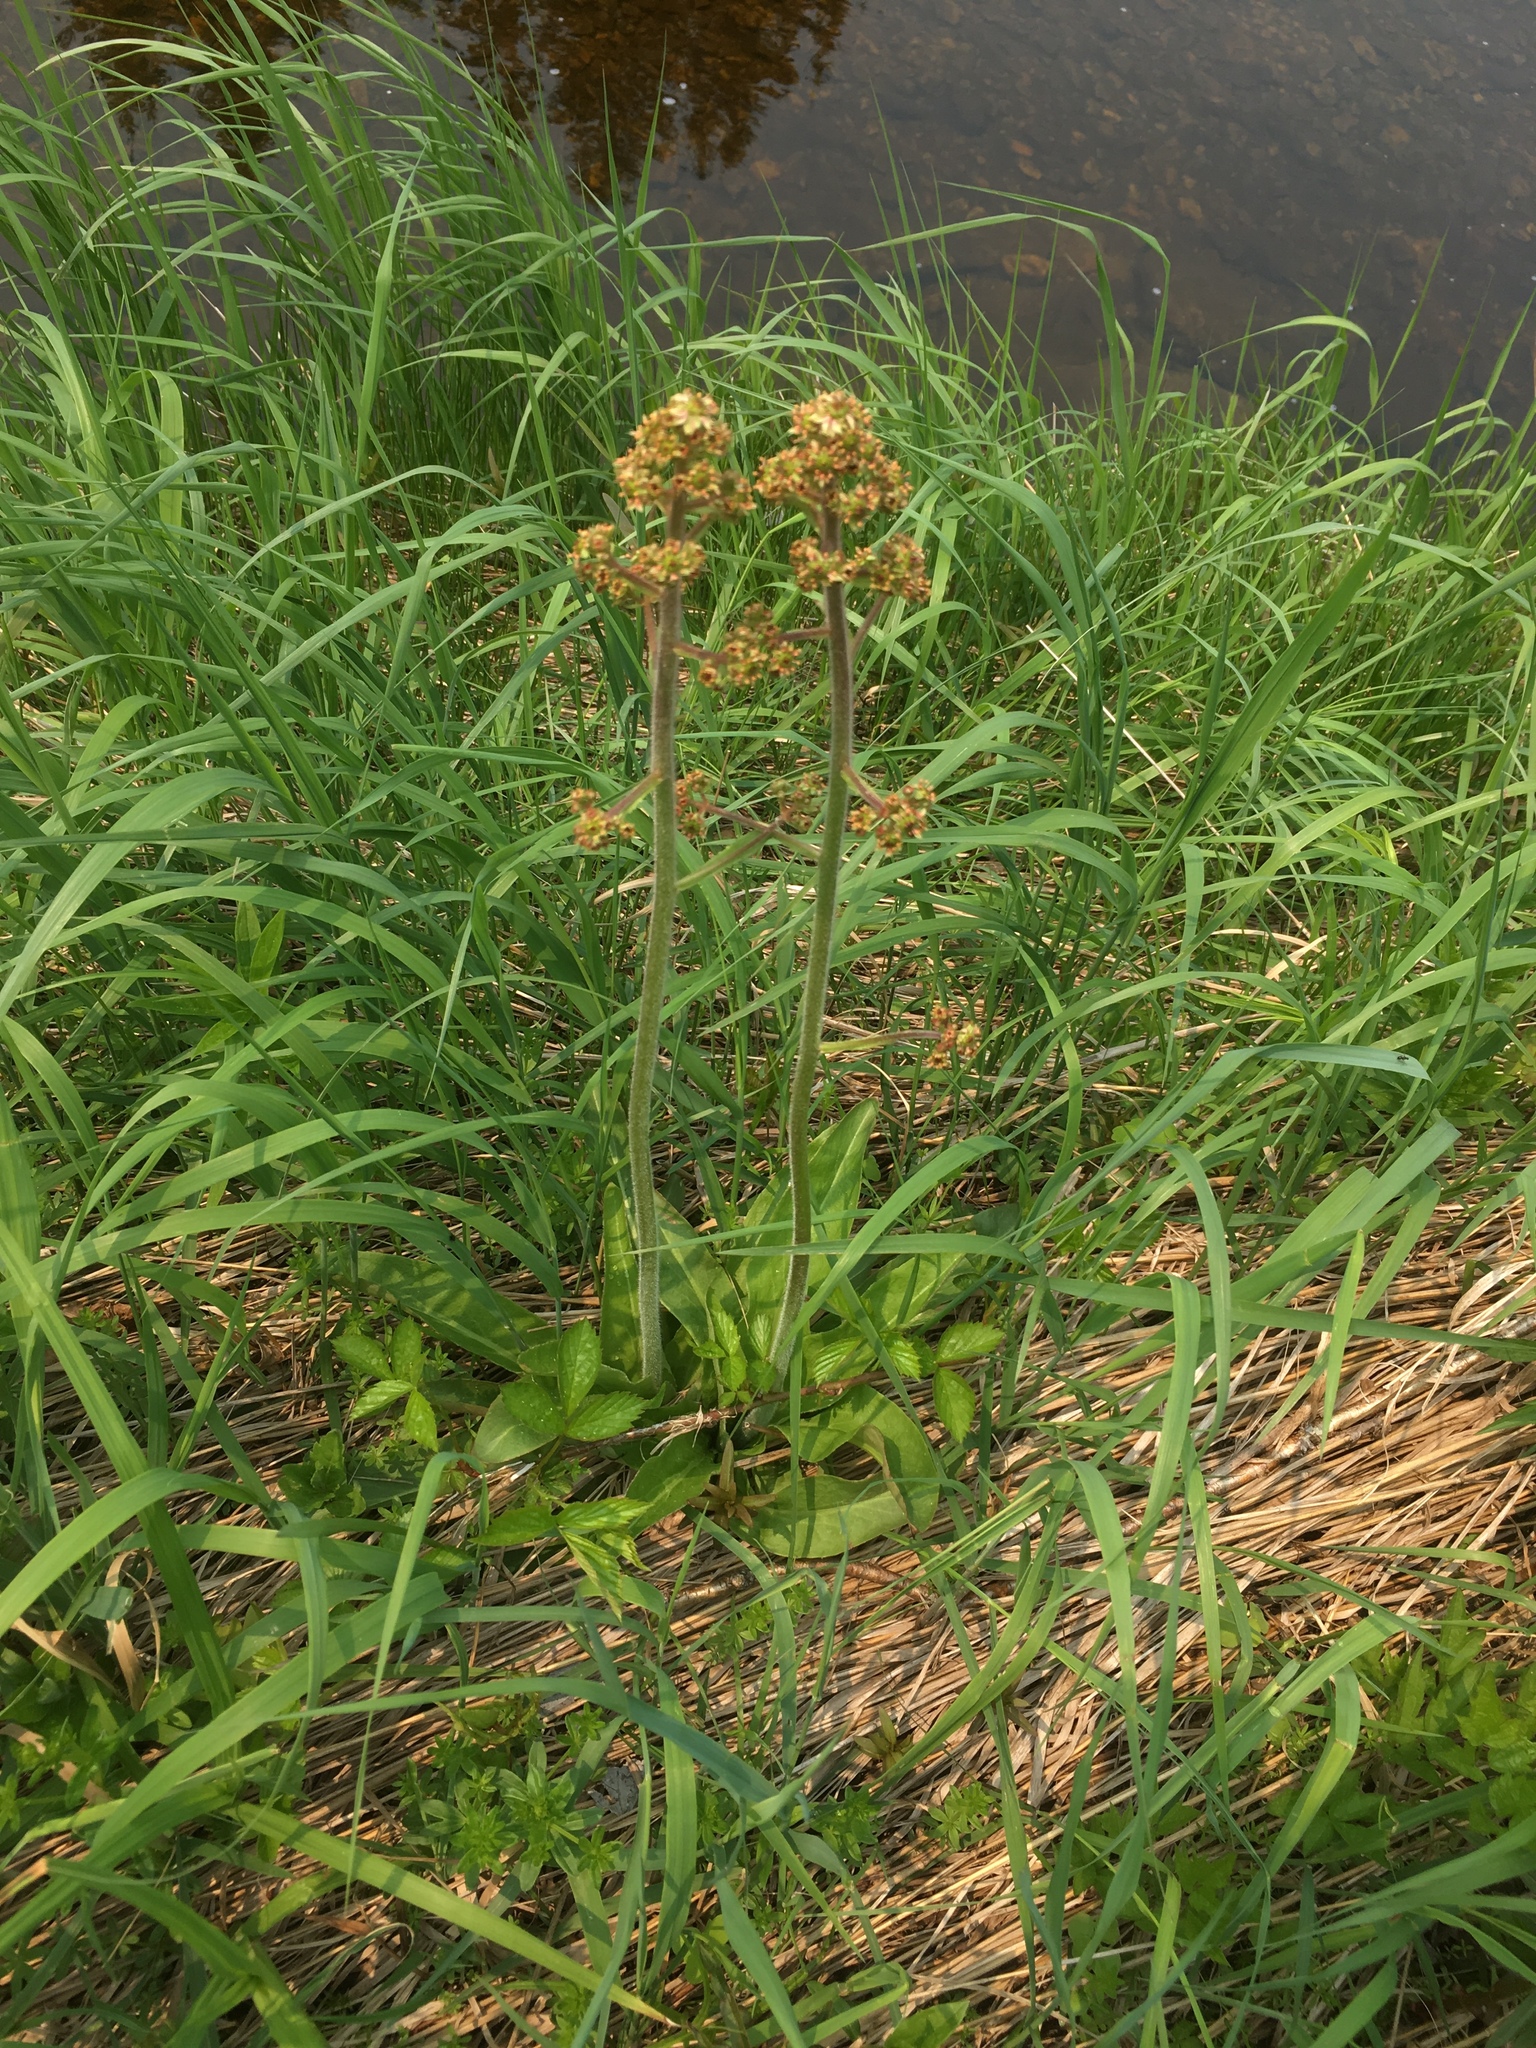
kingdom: Plantae
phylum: Tracheophyta
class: Magnoliopsida
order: Saxifragales
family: Saxifragaceae
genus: Micranthes
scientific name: Micranthes pensylvanica
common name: Marsh saxifrage
